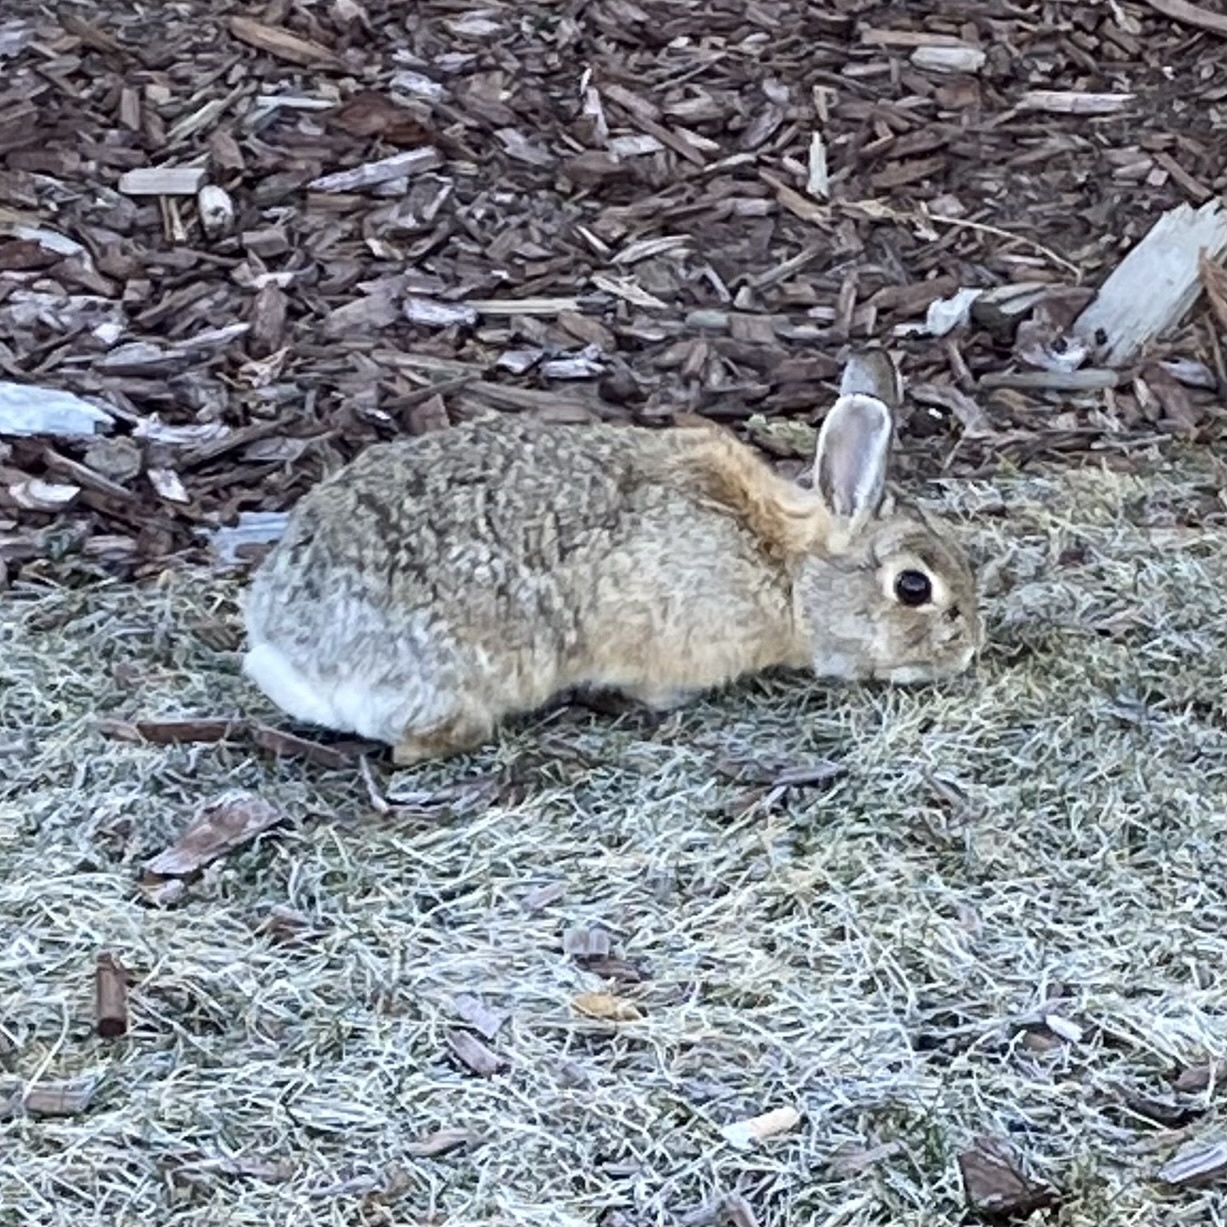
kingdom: Animalia
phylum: Chordata
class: Mammalia
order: Lagomorpha
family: Leporidae
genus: Sylvilagus
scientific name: Sylvilagus nuttallii
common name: Mountain cottontail
